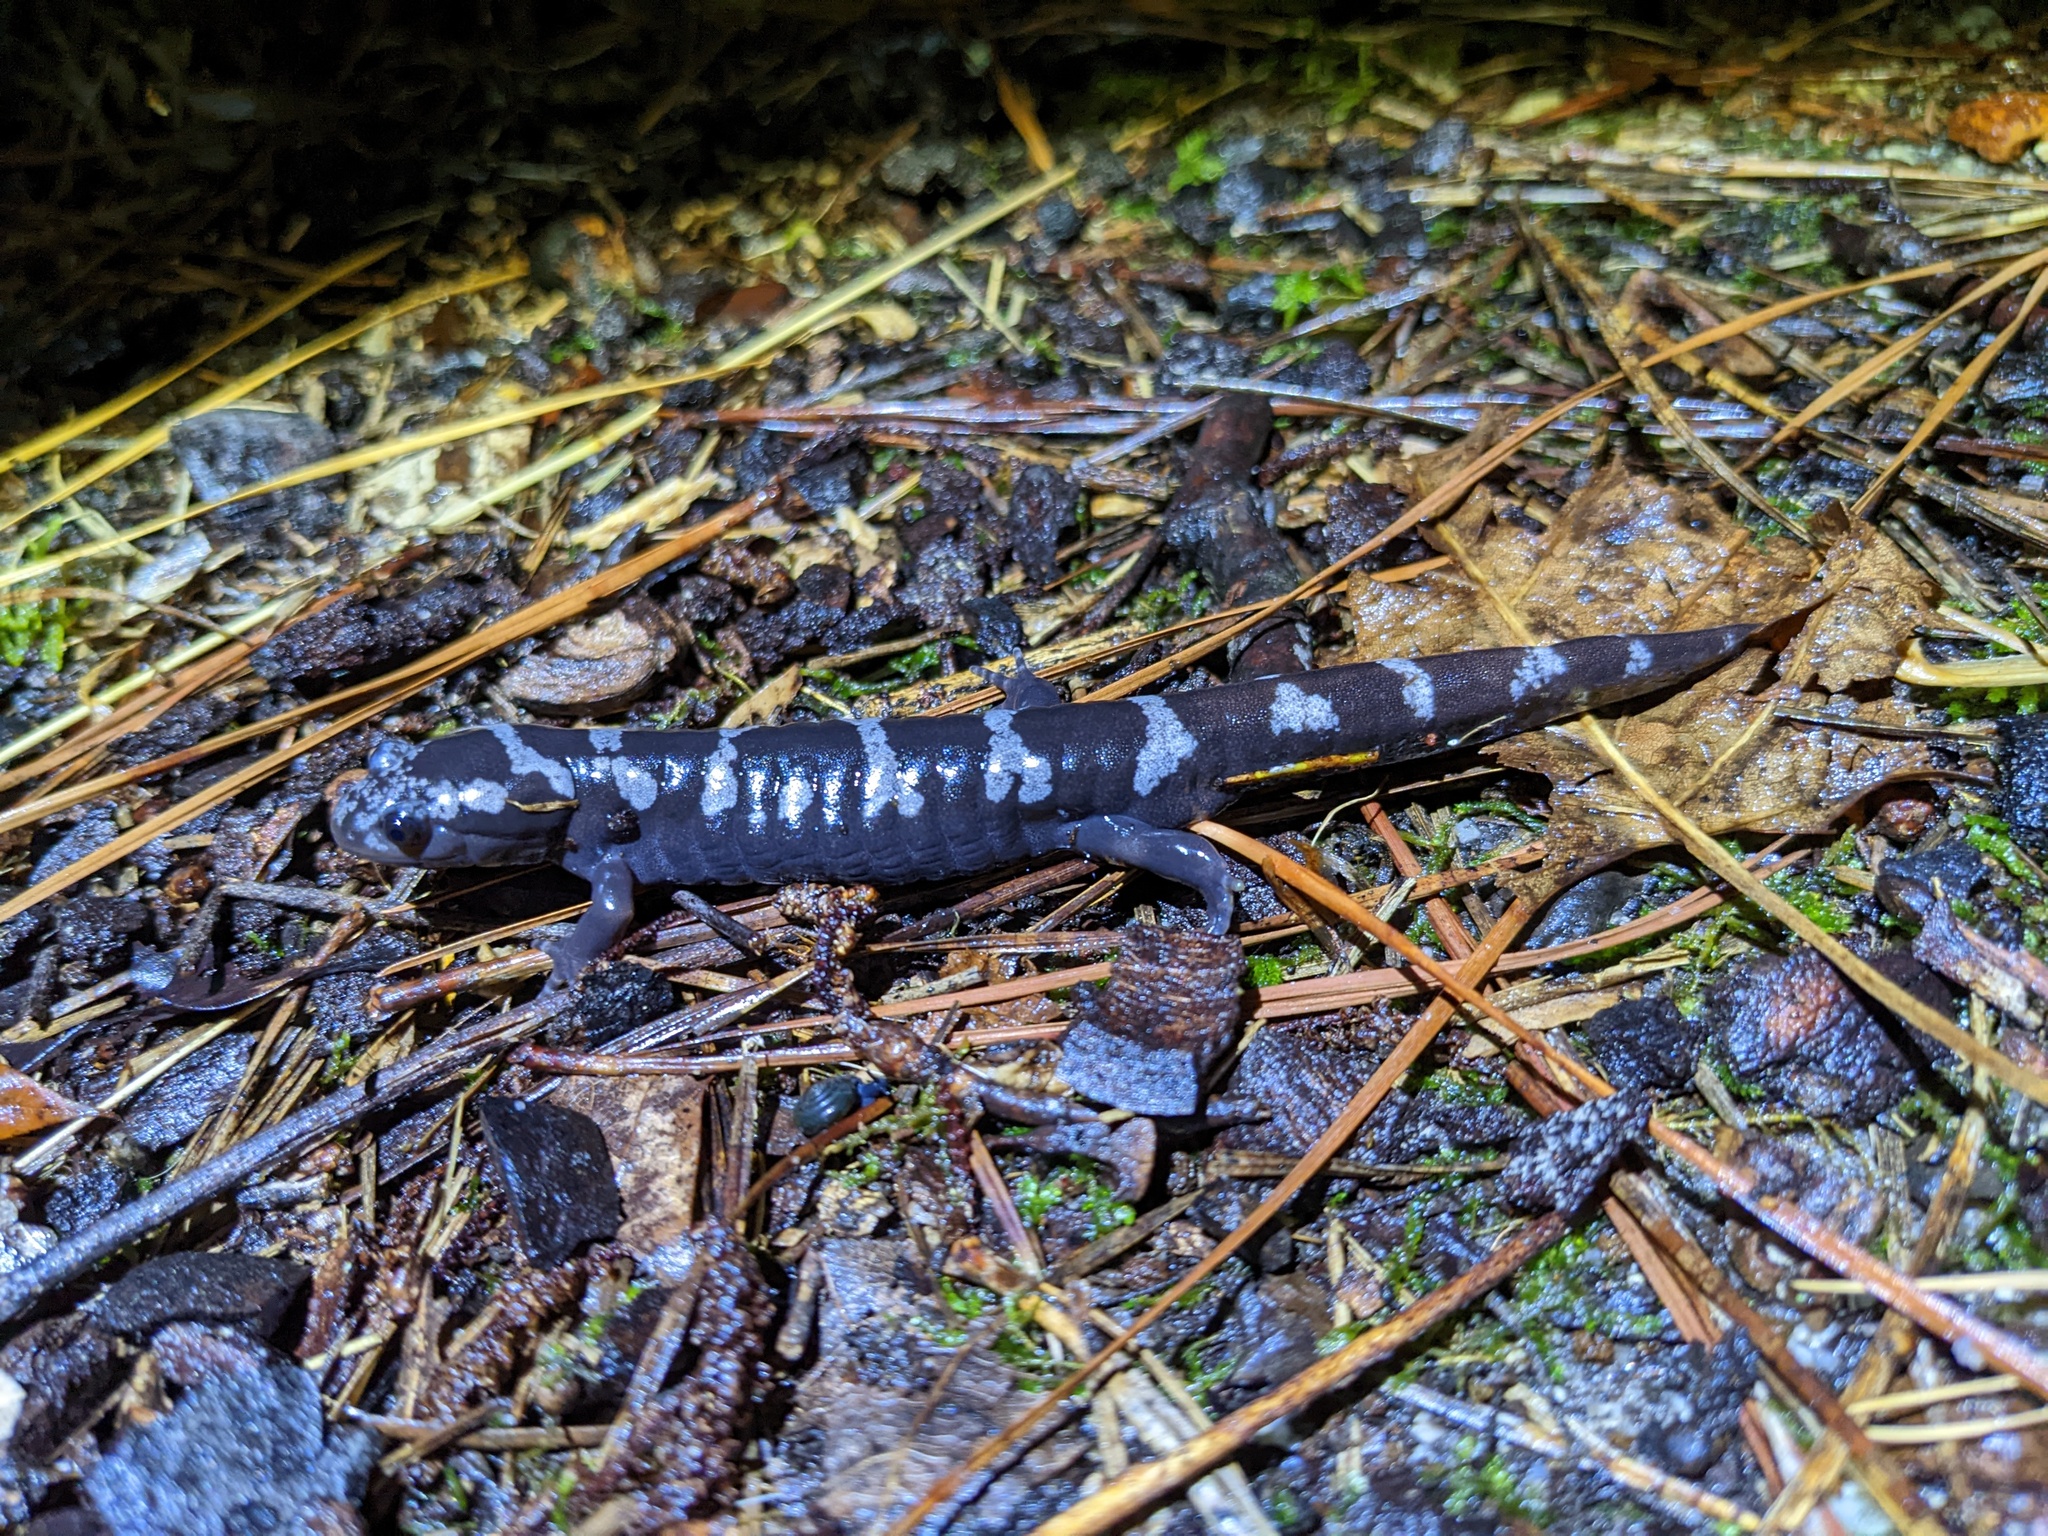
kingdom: Animalia
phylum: Chordata
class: Amphibia
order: Caudata
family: Ambystomatidae
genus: Ambystoma
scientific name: Ambystoma opacum
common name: Marbled salamander
